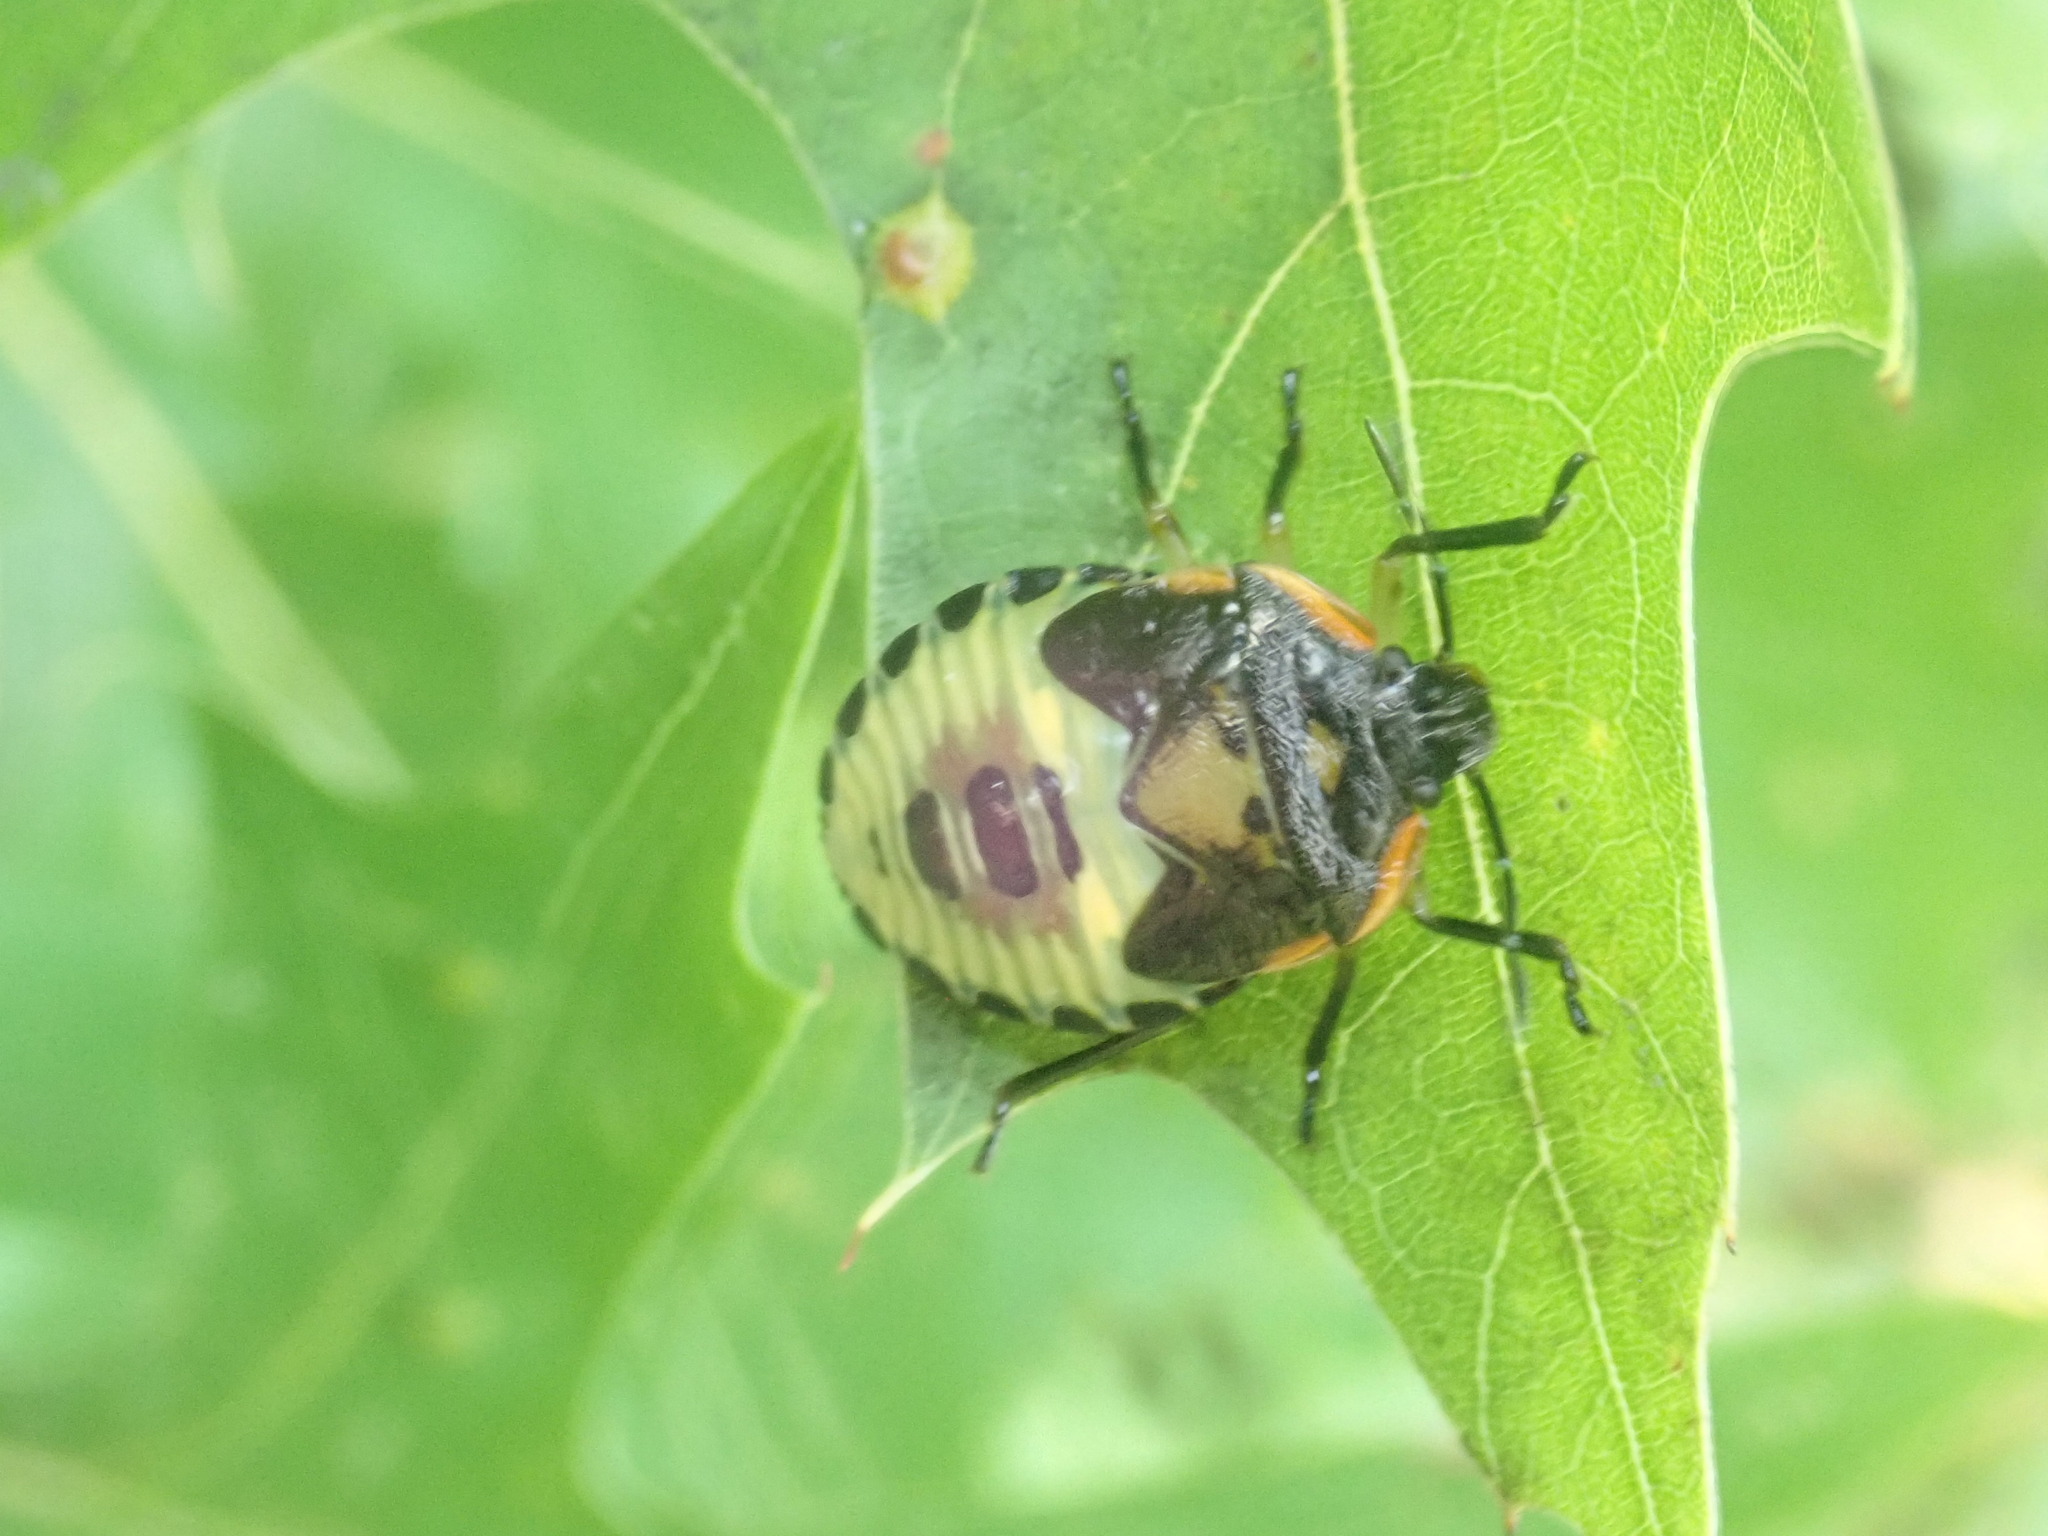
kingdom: Animalia
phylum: Arthropoda
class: Insecta
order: Hemiptera
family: Pentatomidae
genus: Chinavia
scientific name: Chinavia hilaris
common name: Green stink bug
